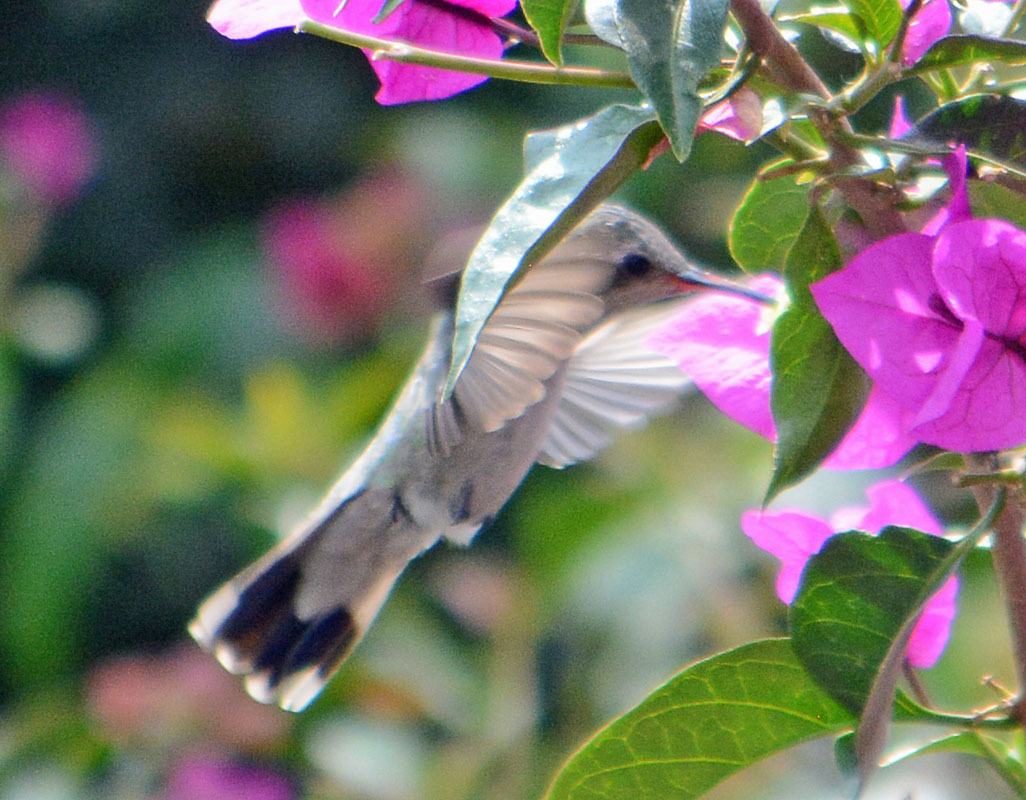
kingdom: Animalia
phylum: Chordata
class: Aves
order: Apodiformes
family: Trochilidae
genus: Cynanthus
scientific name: Cynanthus latirostris
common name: Broad-billed hummingbird
